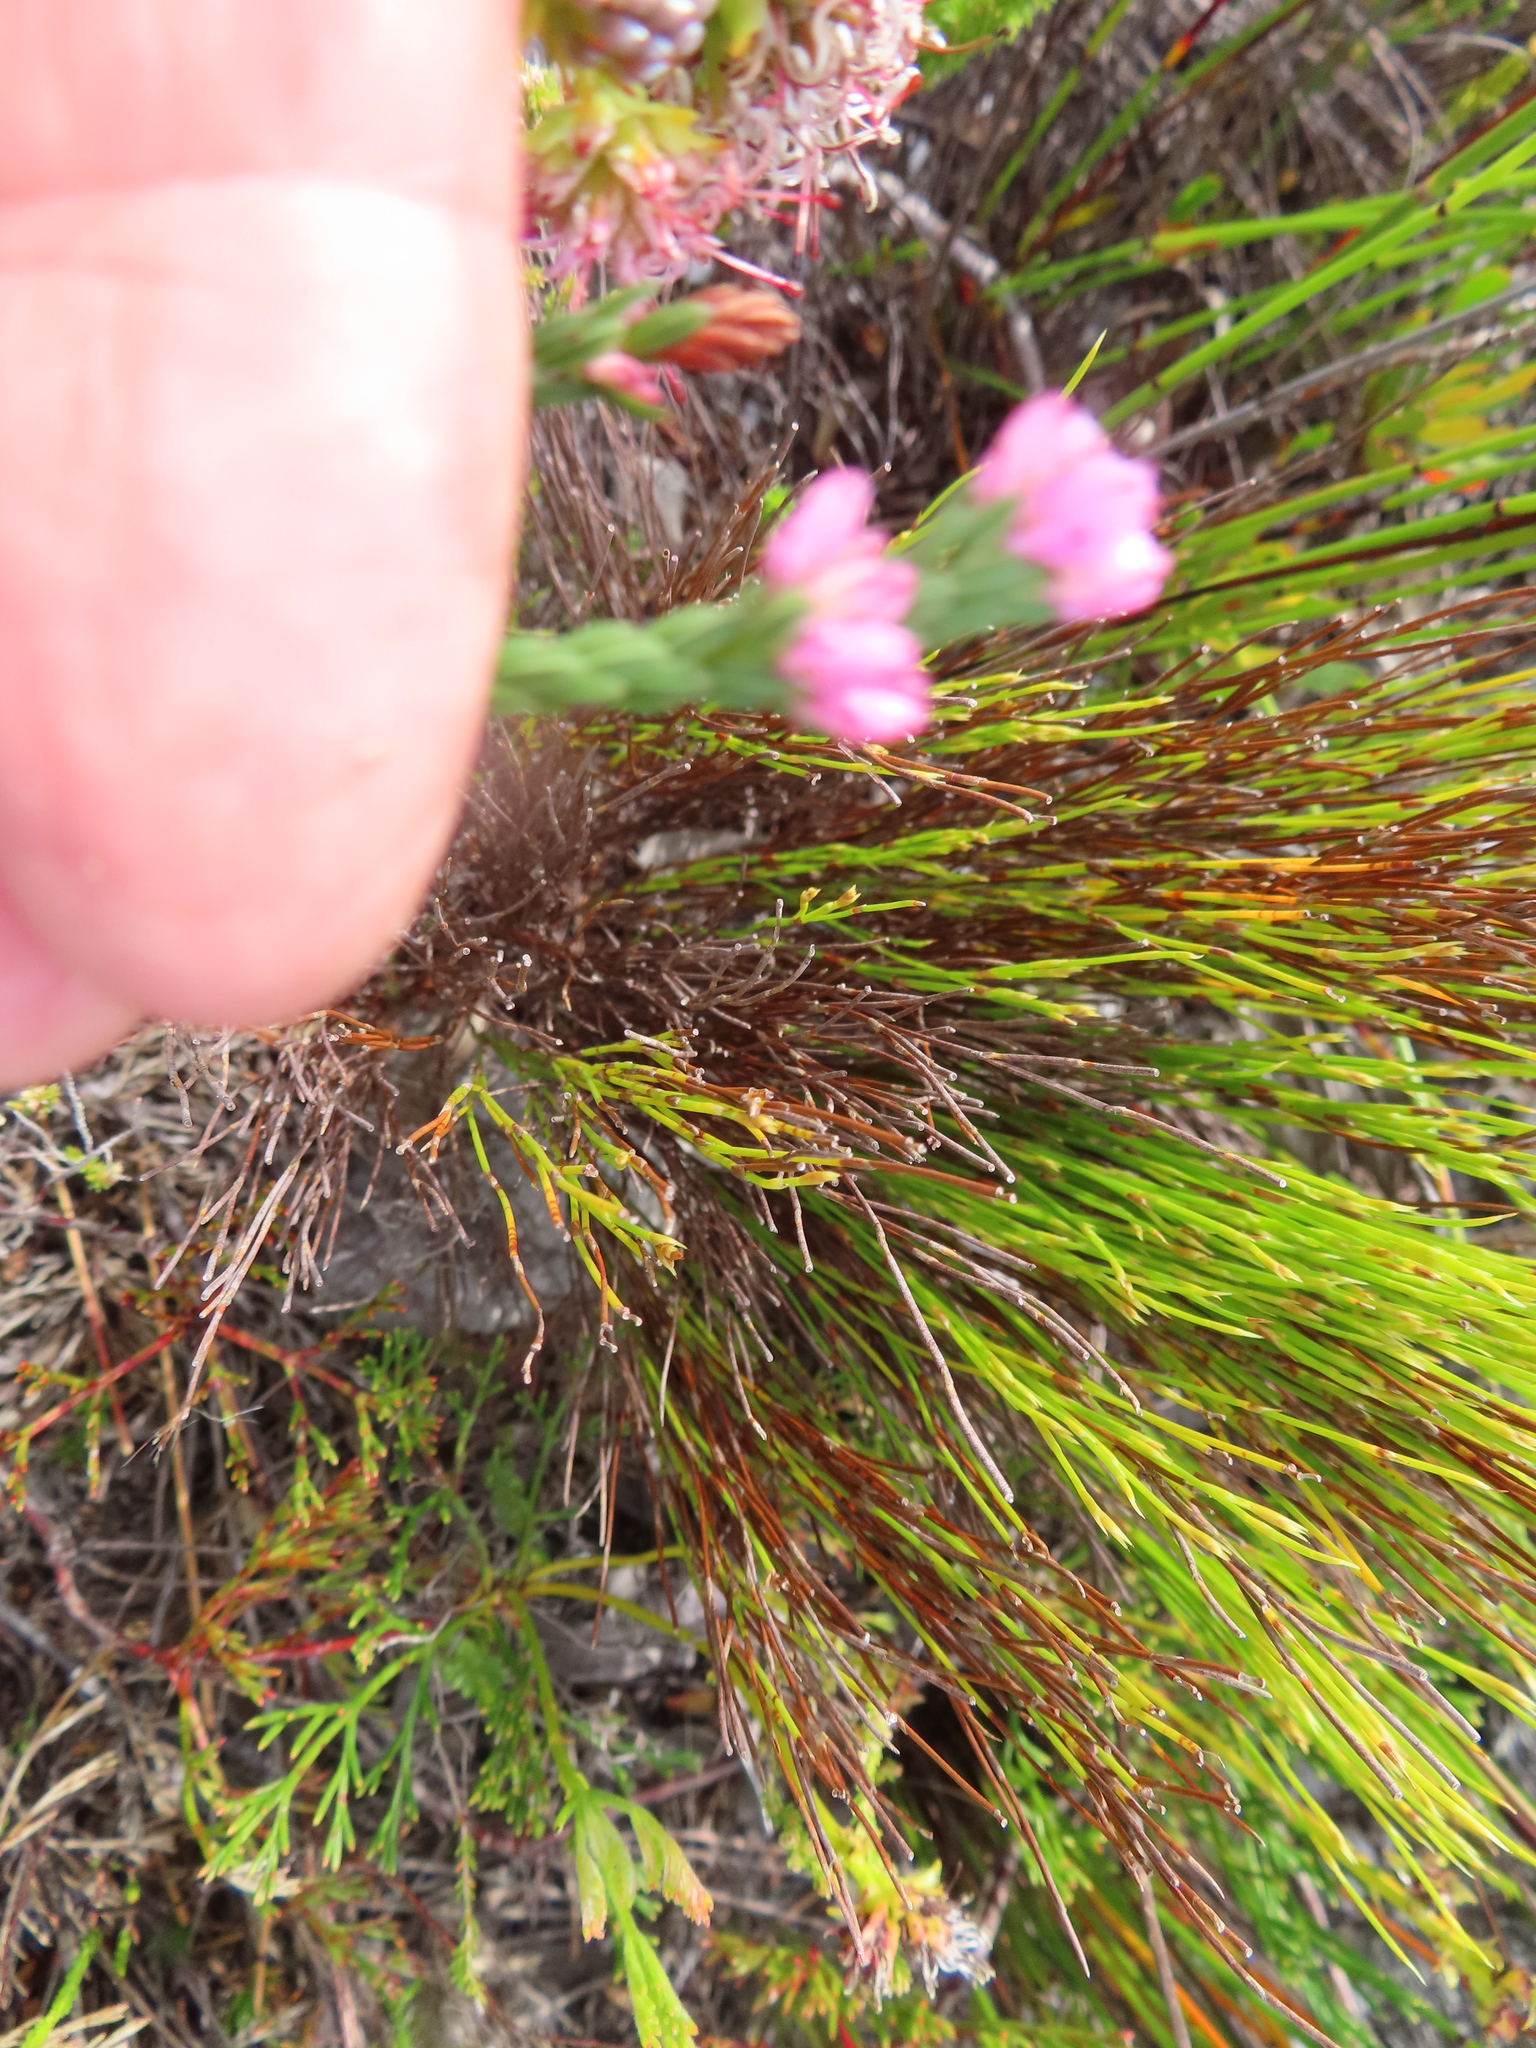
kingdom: Plantae
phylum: Tracheophyta
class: Magnoliopsida
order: Ericales
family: Ericaceae
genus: Erica
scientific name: Erica corifolia
